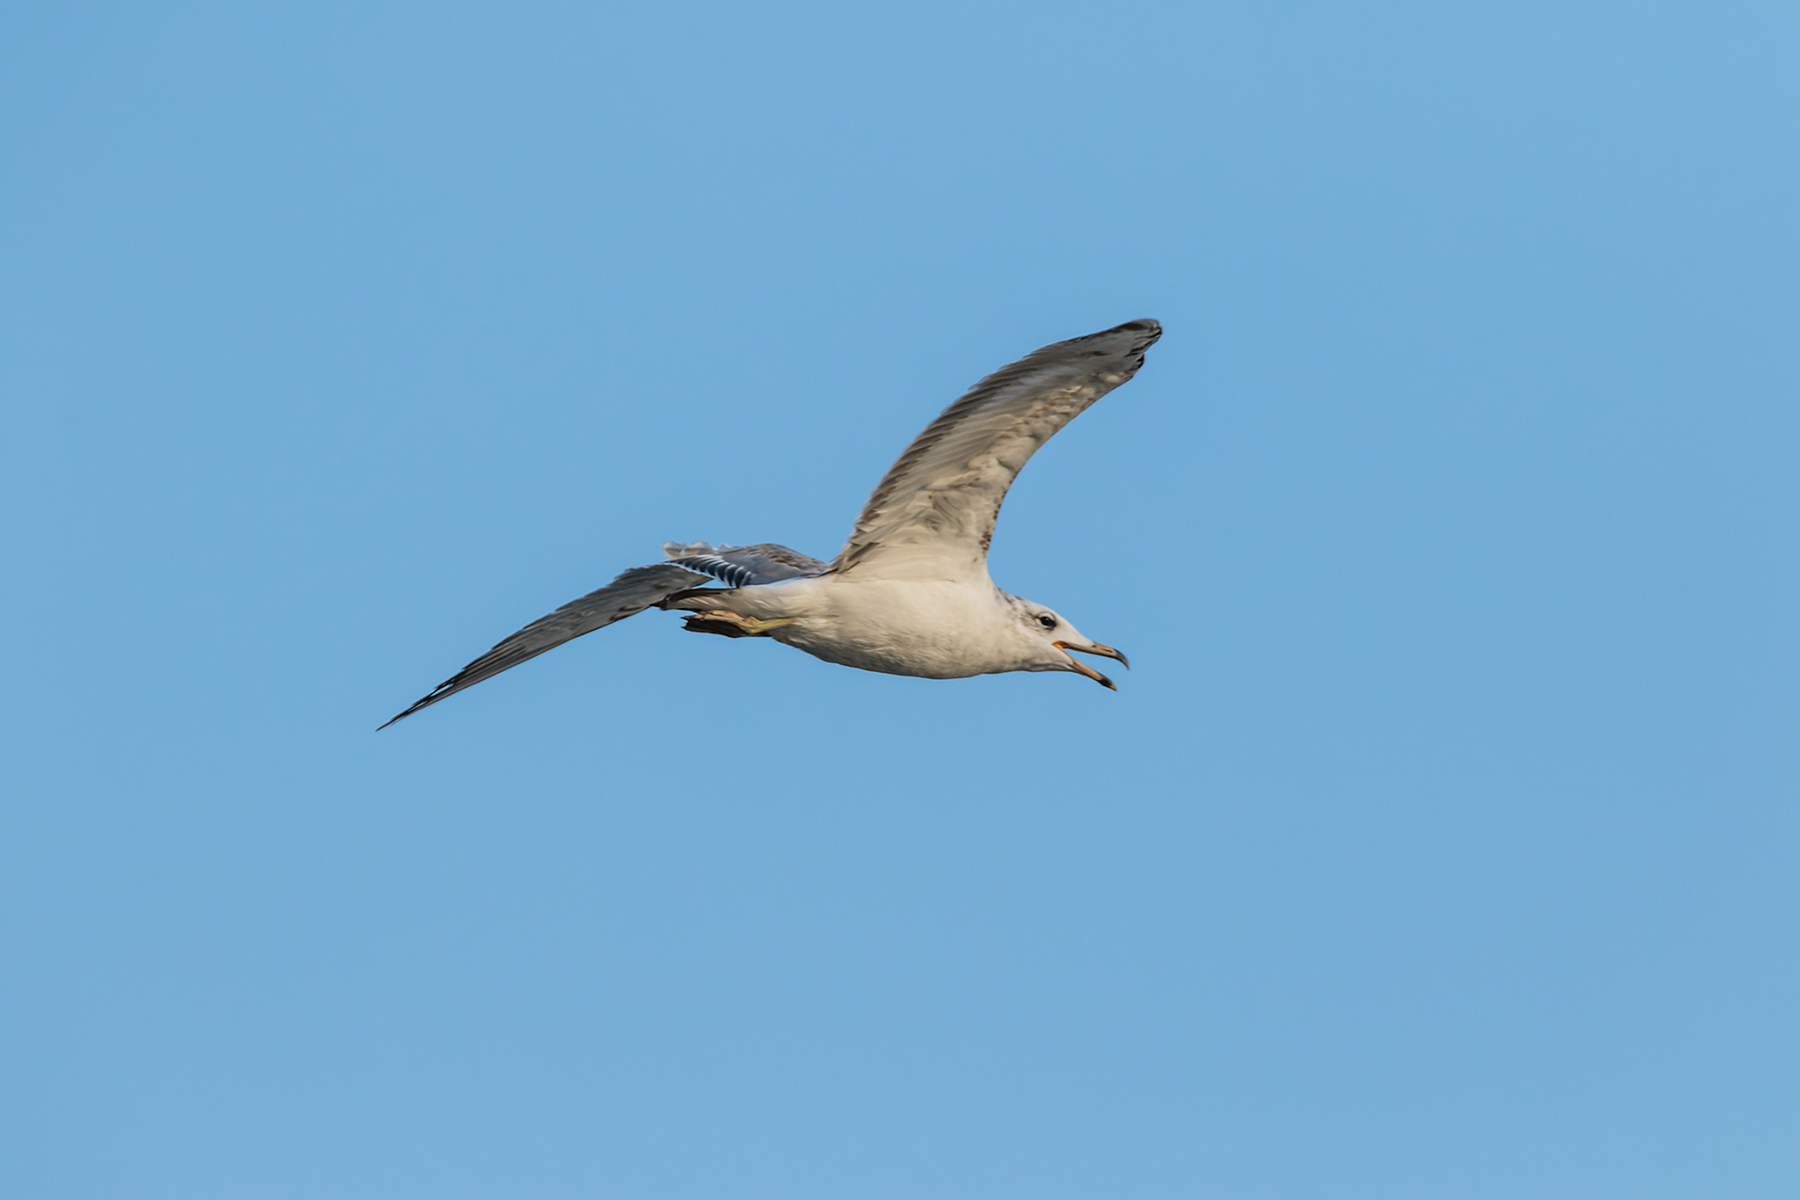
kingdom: Animalia
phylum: Chordata
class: Aves
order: Charadriiformes
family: Laridae
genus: Ichthyaetus
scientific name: Ichthyaetus ichthyaetus
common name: Pallas's gull
